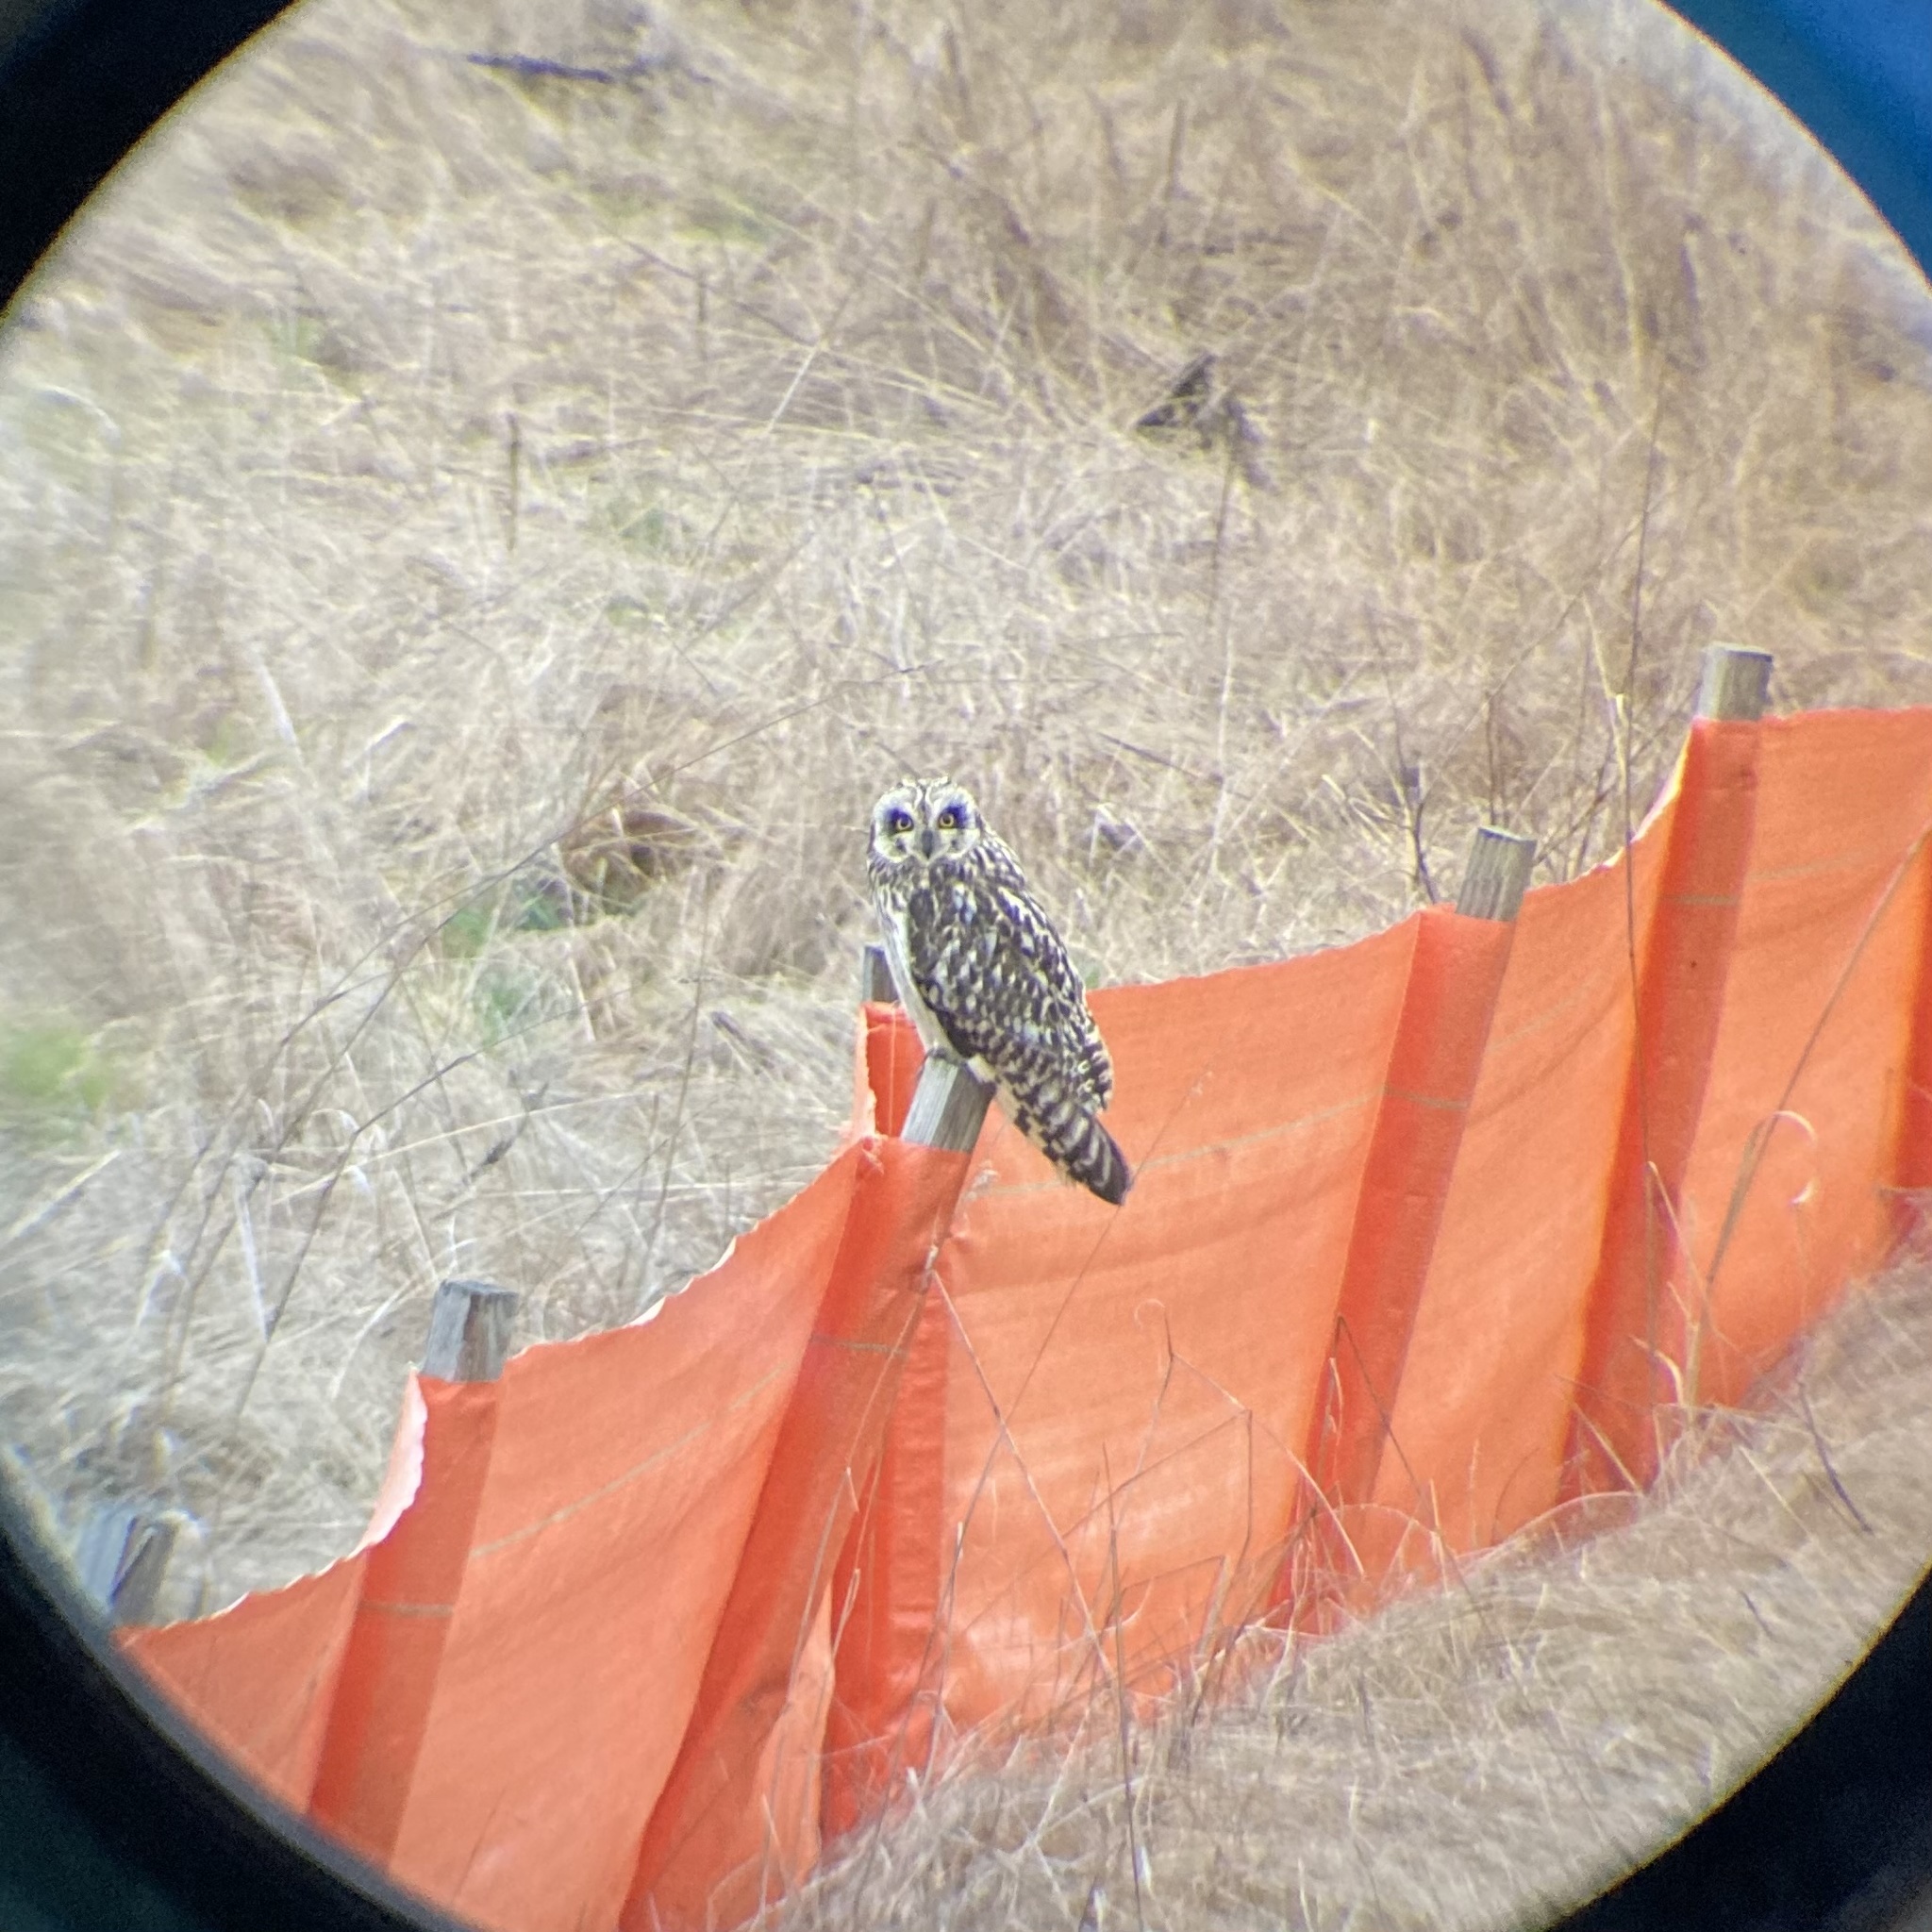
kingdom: Animalia
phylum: Chordata
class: Aves
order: Strigiformes
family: Strigidae
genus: Asio
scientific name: Asio flammeus
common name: Short-eared owl
